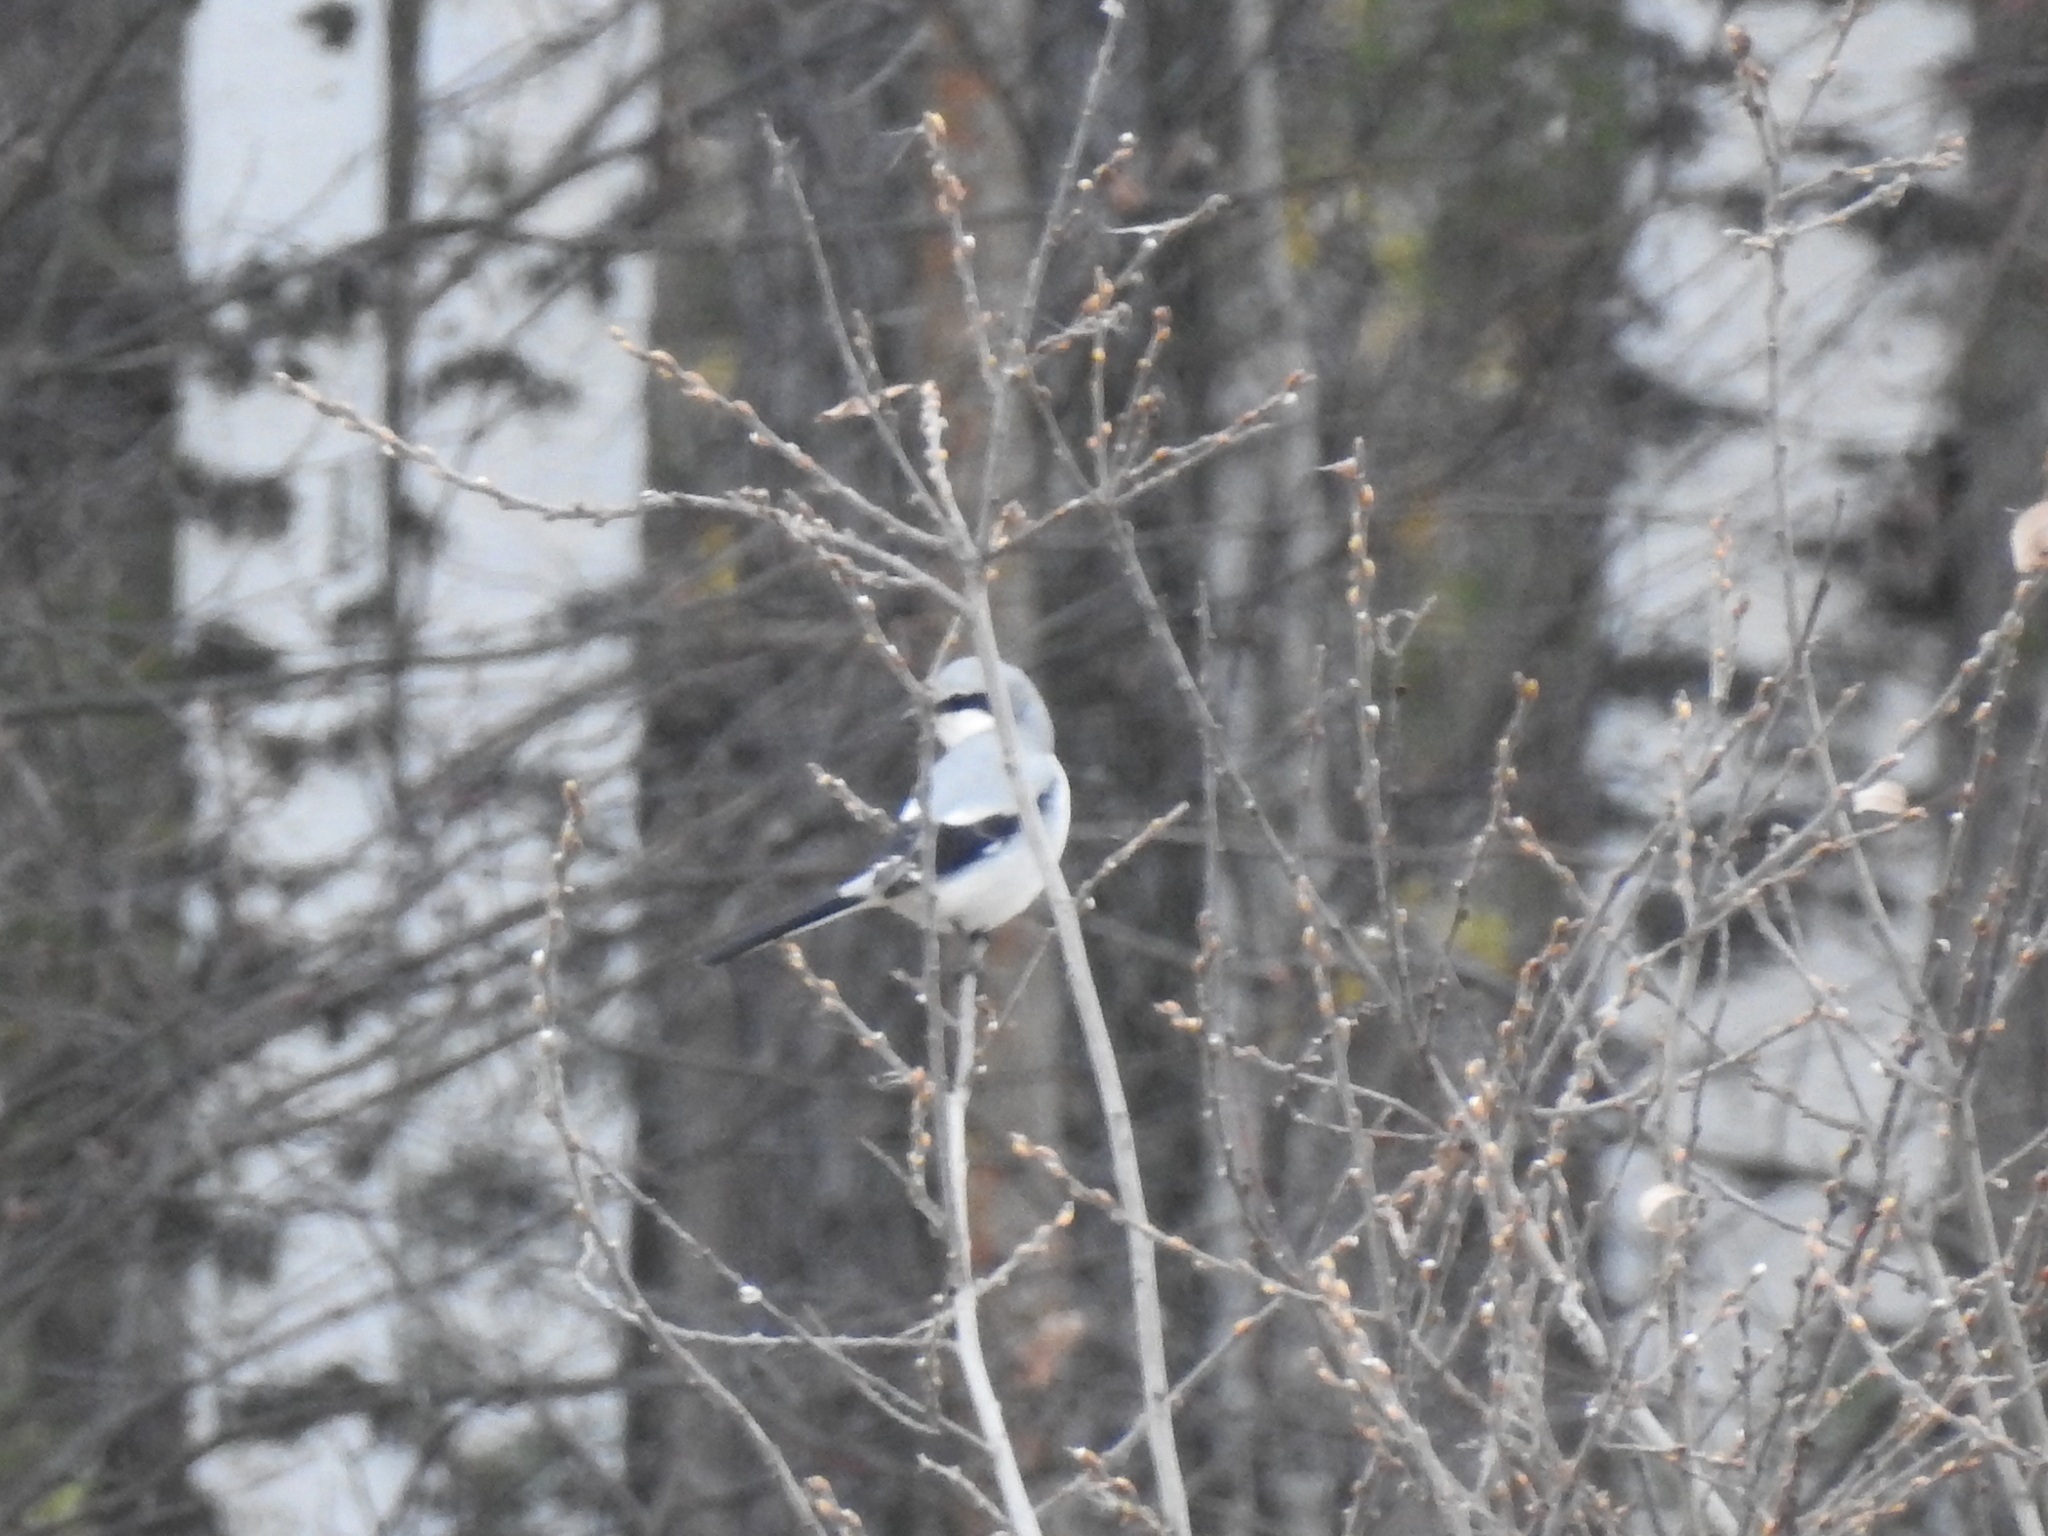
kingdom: Animalia
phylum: Chordata
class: Aves
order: Passeriformes
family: Laniidae
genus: Lanius
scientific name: Lanius excubitor
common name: Great grey shrike
